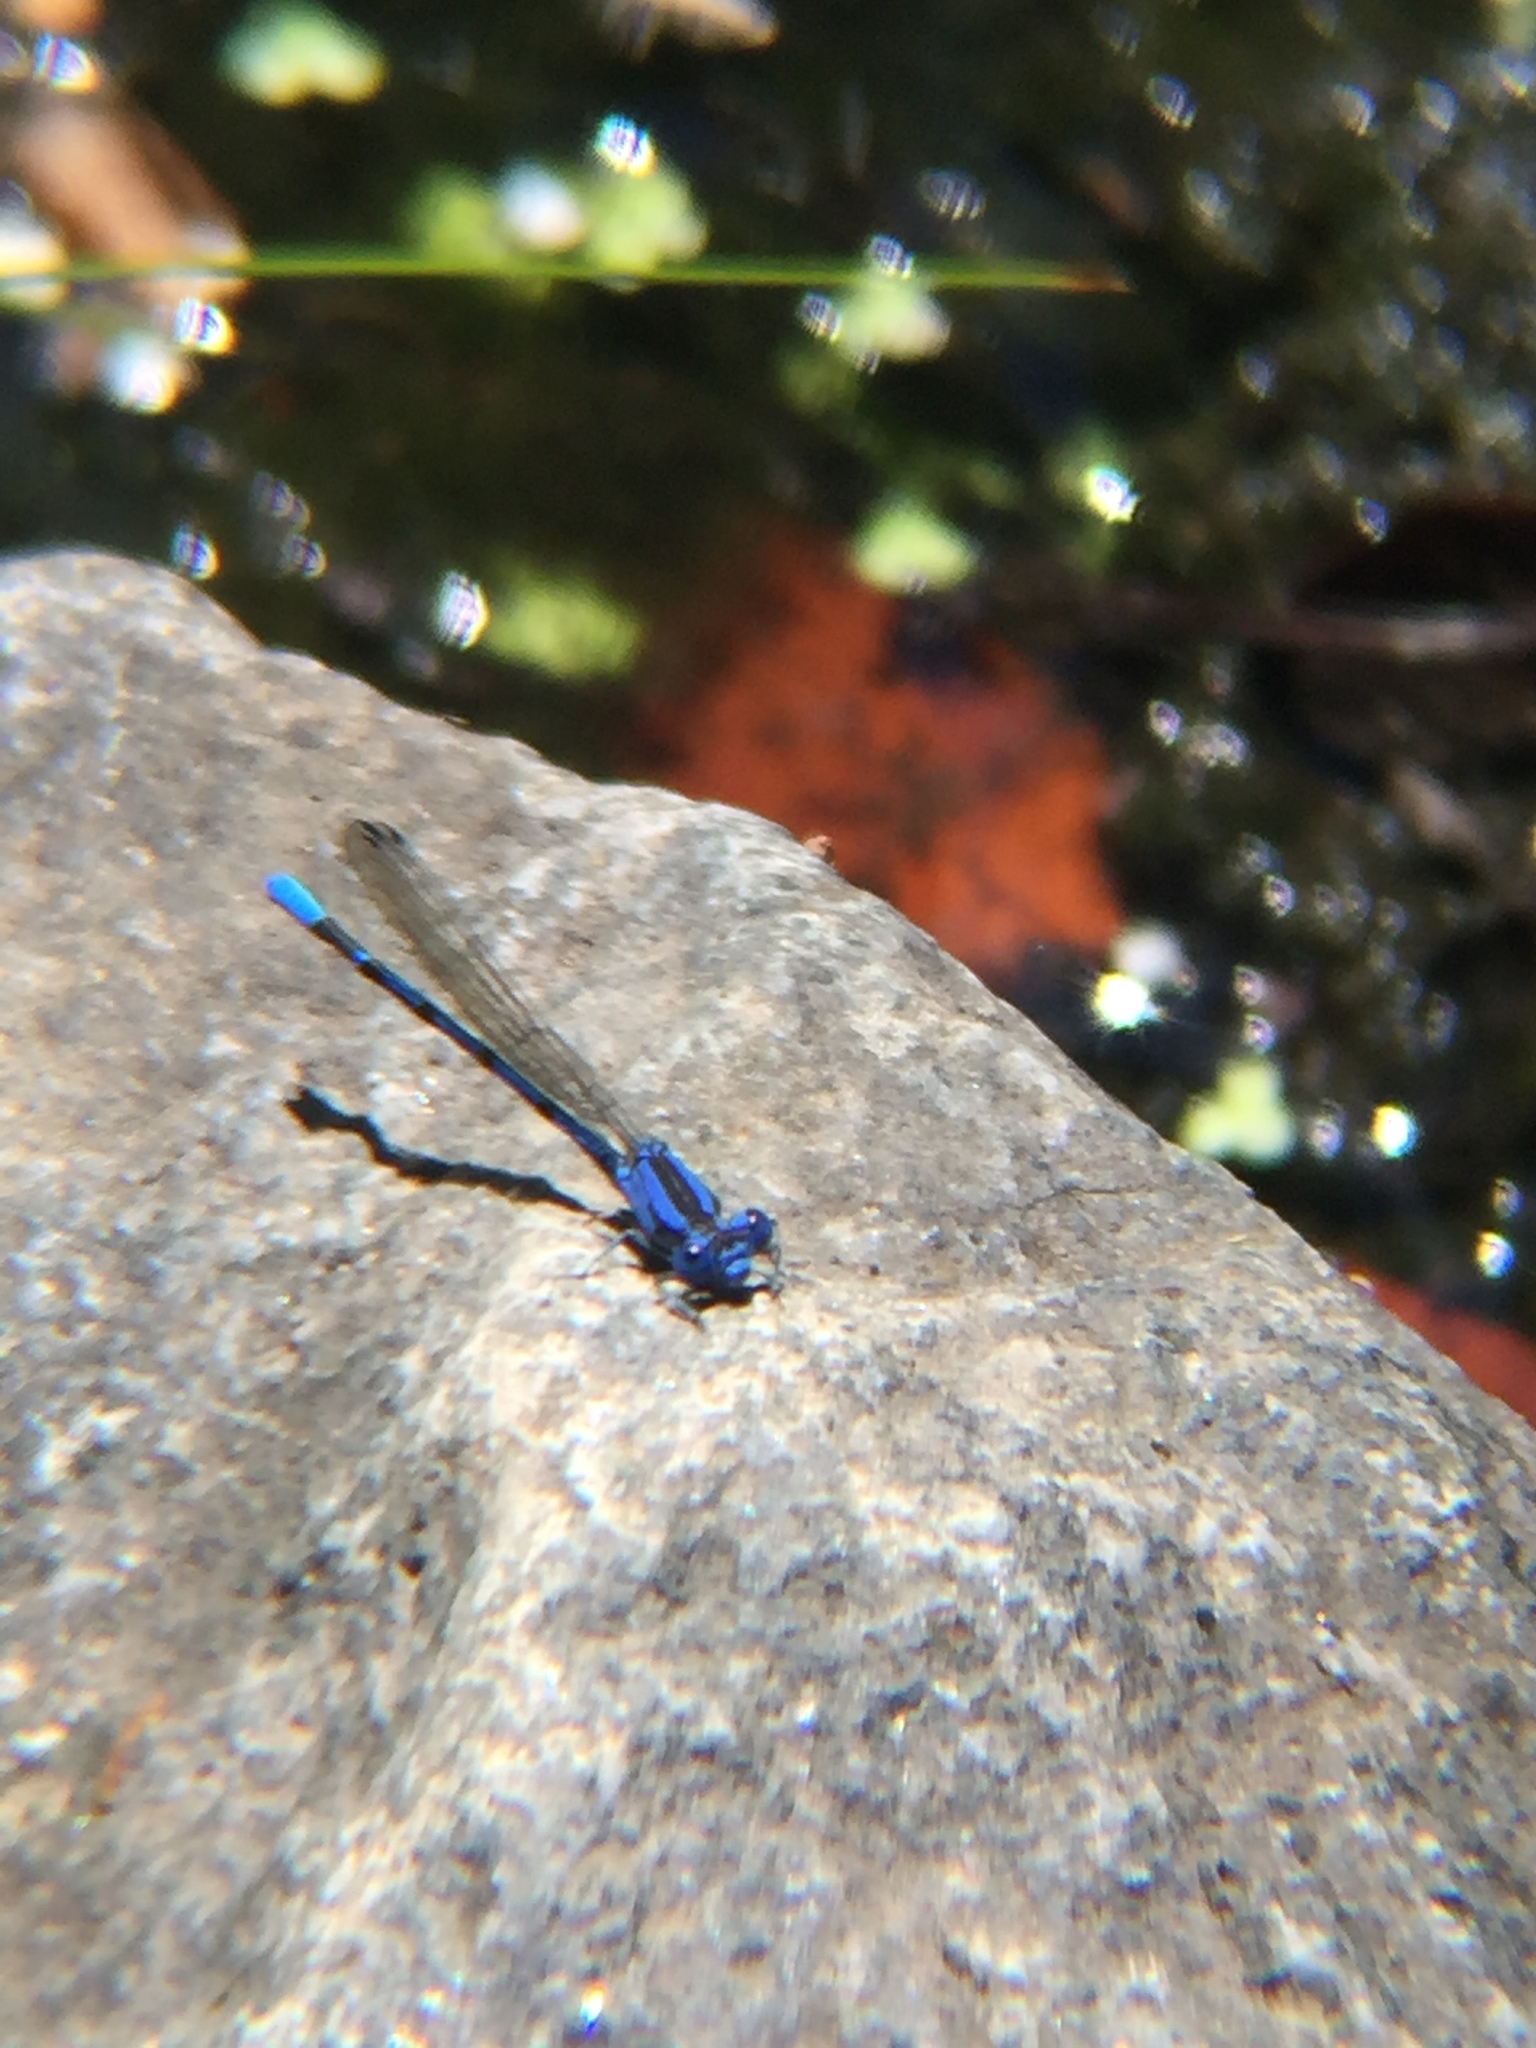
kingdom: Animalia
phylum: Arthropoda
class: Insecta
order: Odonata
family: Coenagrionidae
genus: Argia
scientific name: Argia vivida
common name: Vivid dancer
